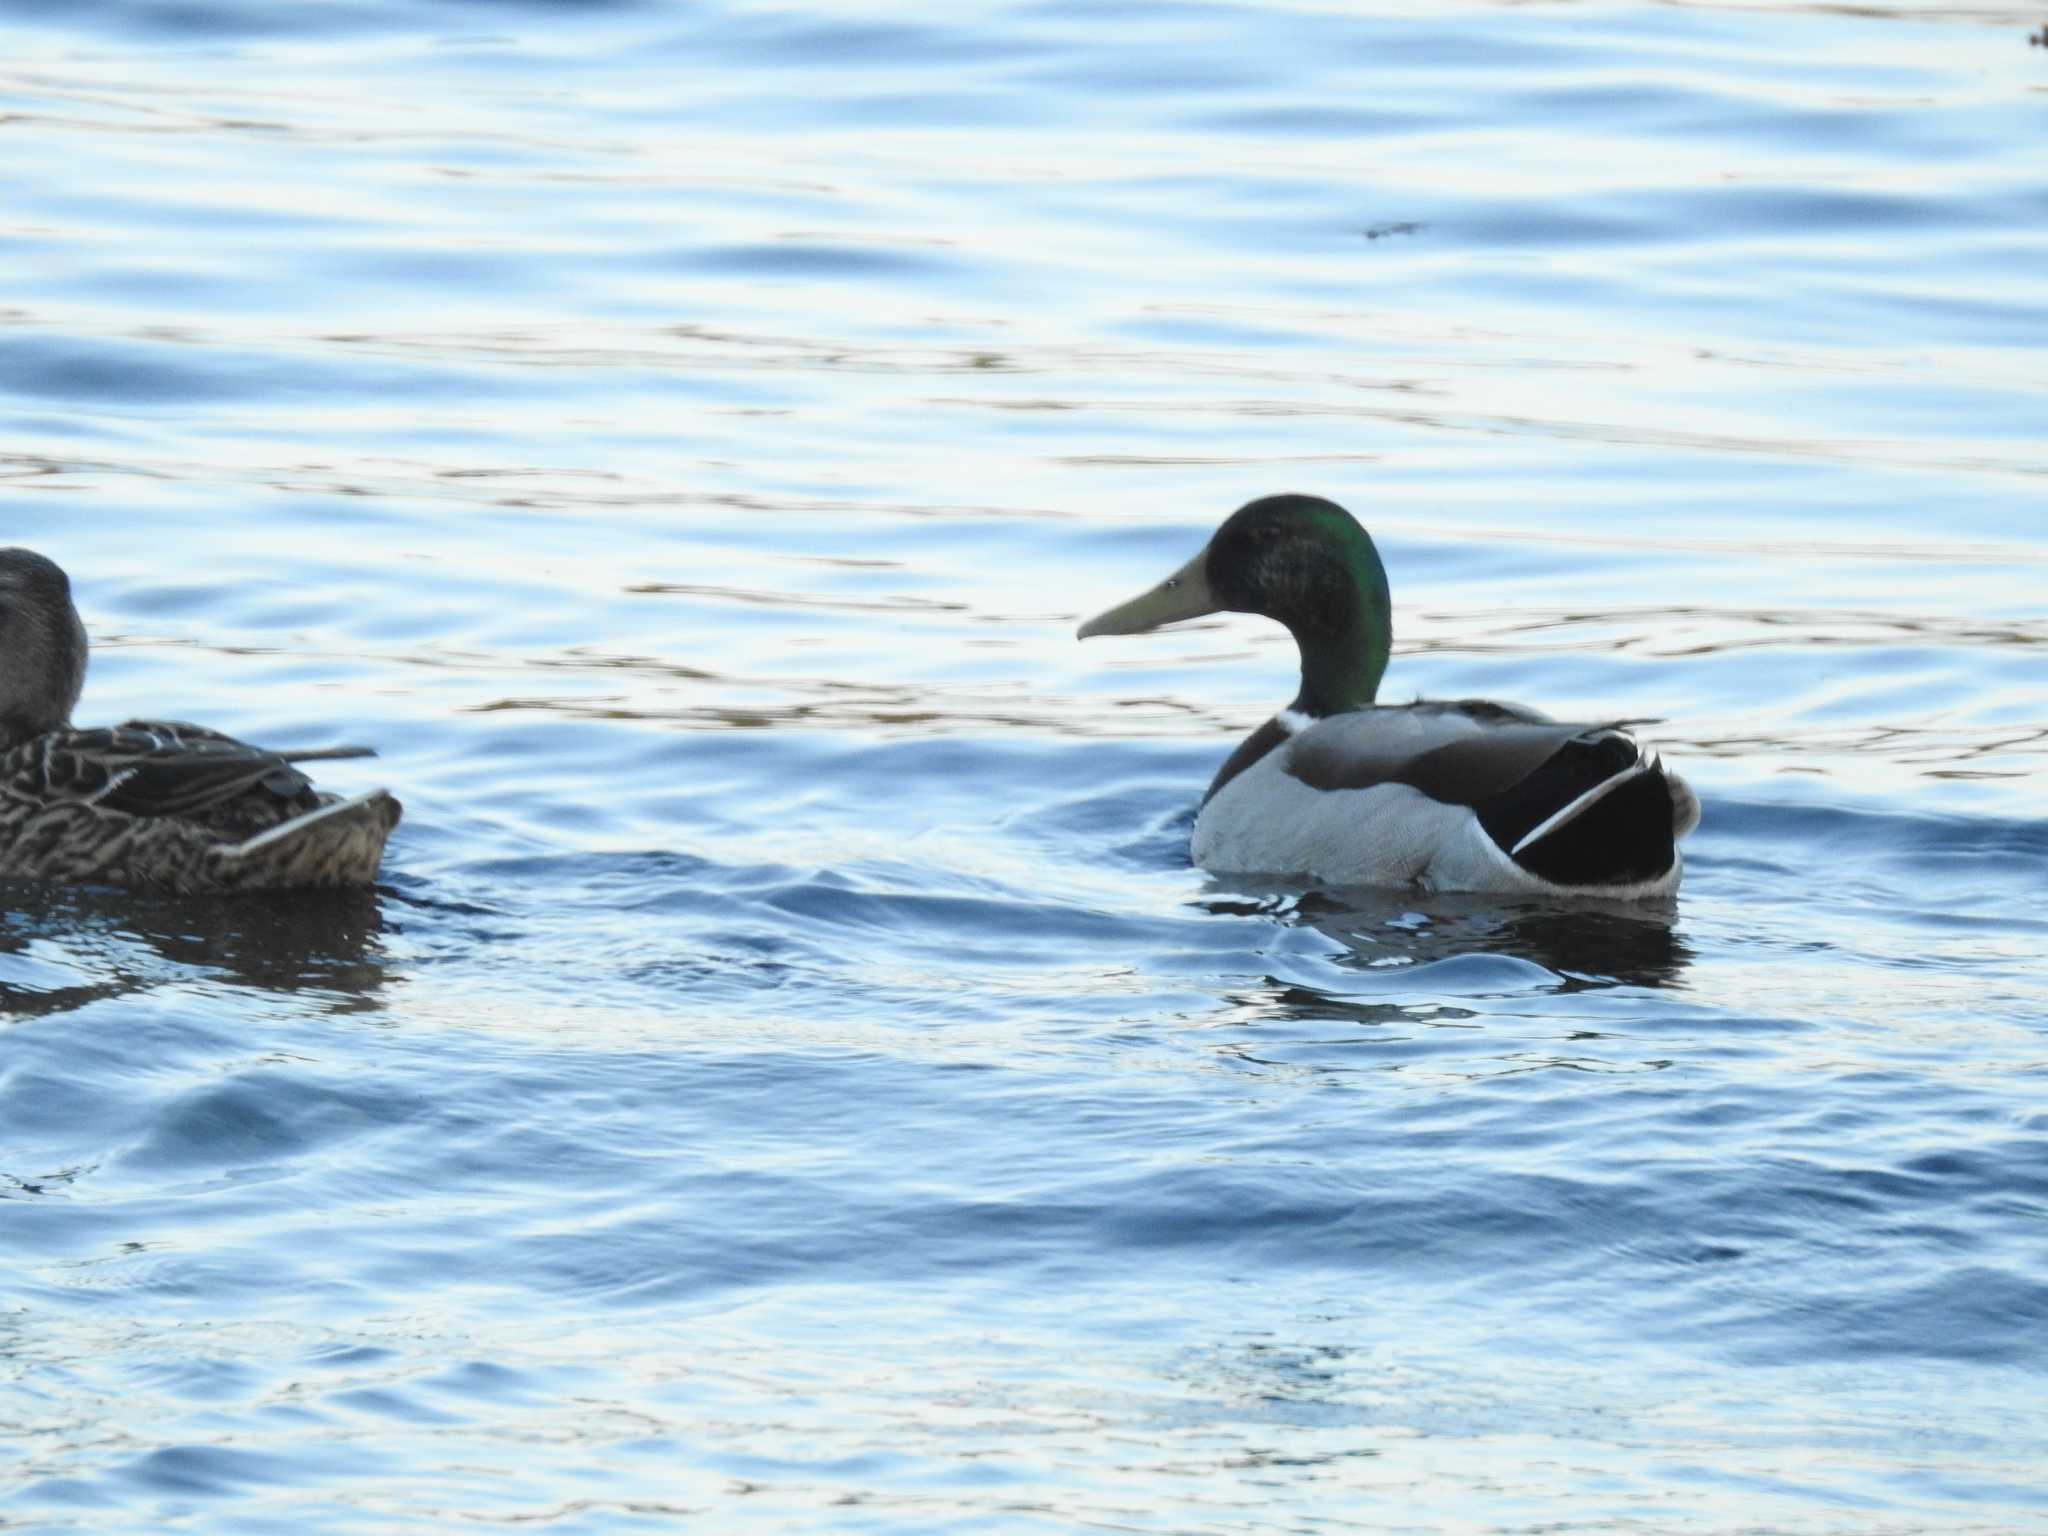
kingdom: Animalia
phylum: Chordata
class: Aves
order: Anseriformes
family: Anatidae
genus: Anas
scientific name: Anas platyrhynchos
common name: Mallard
